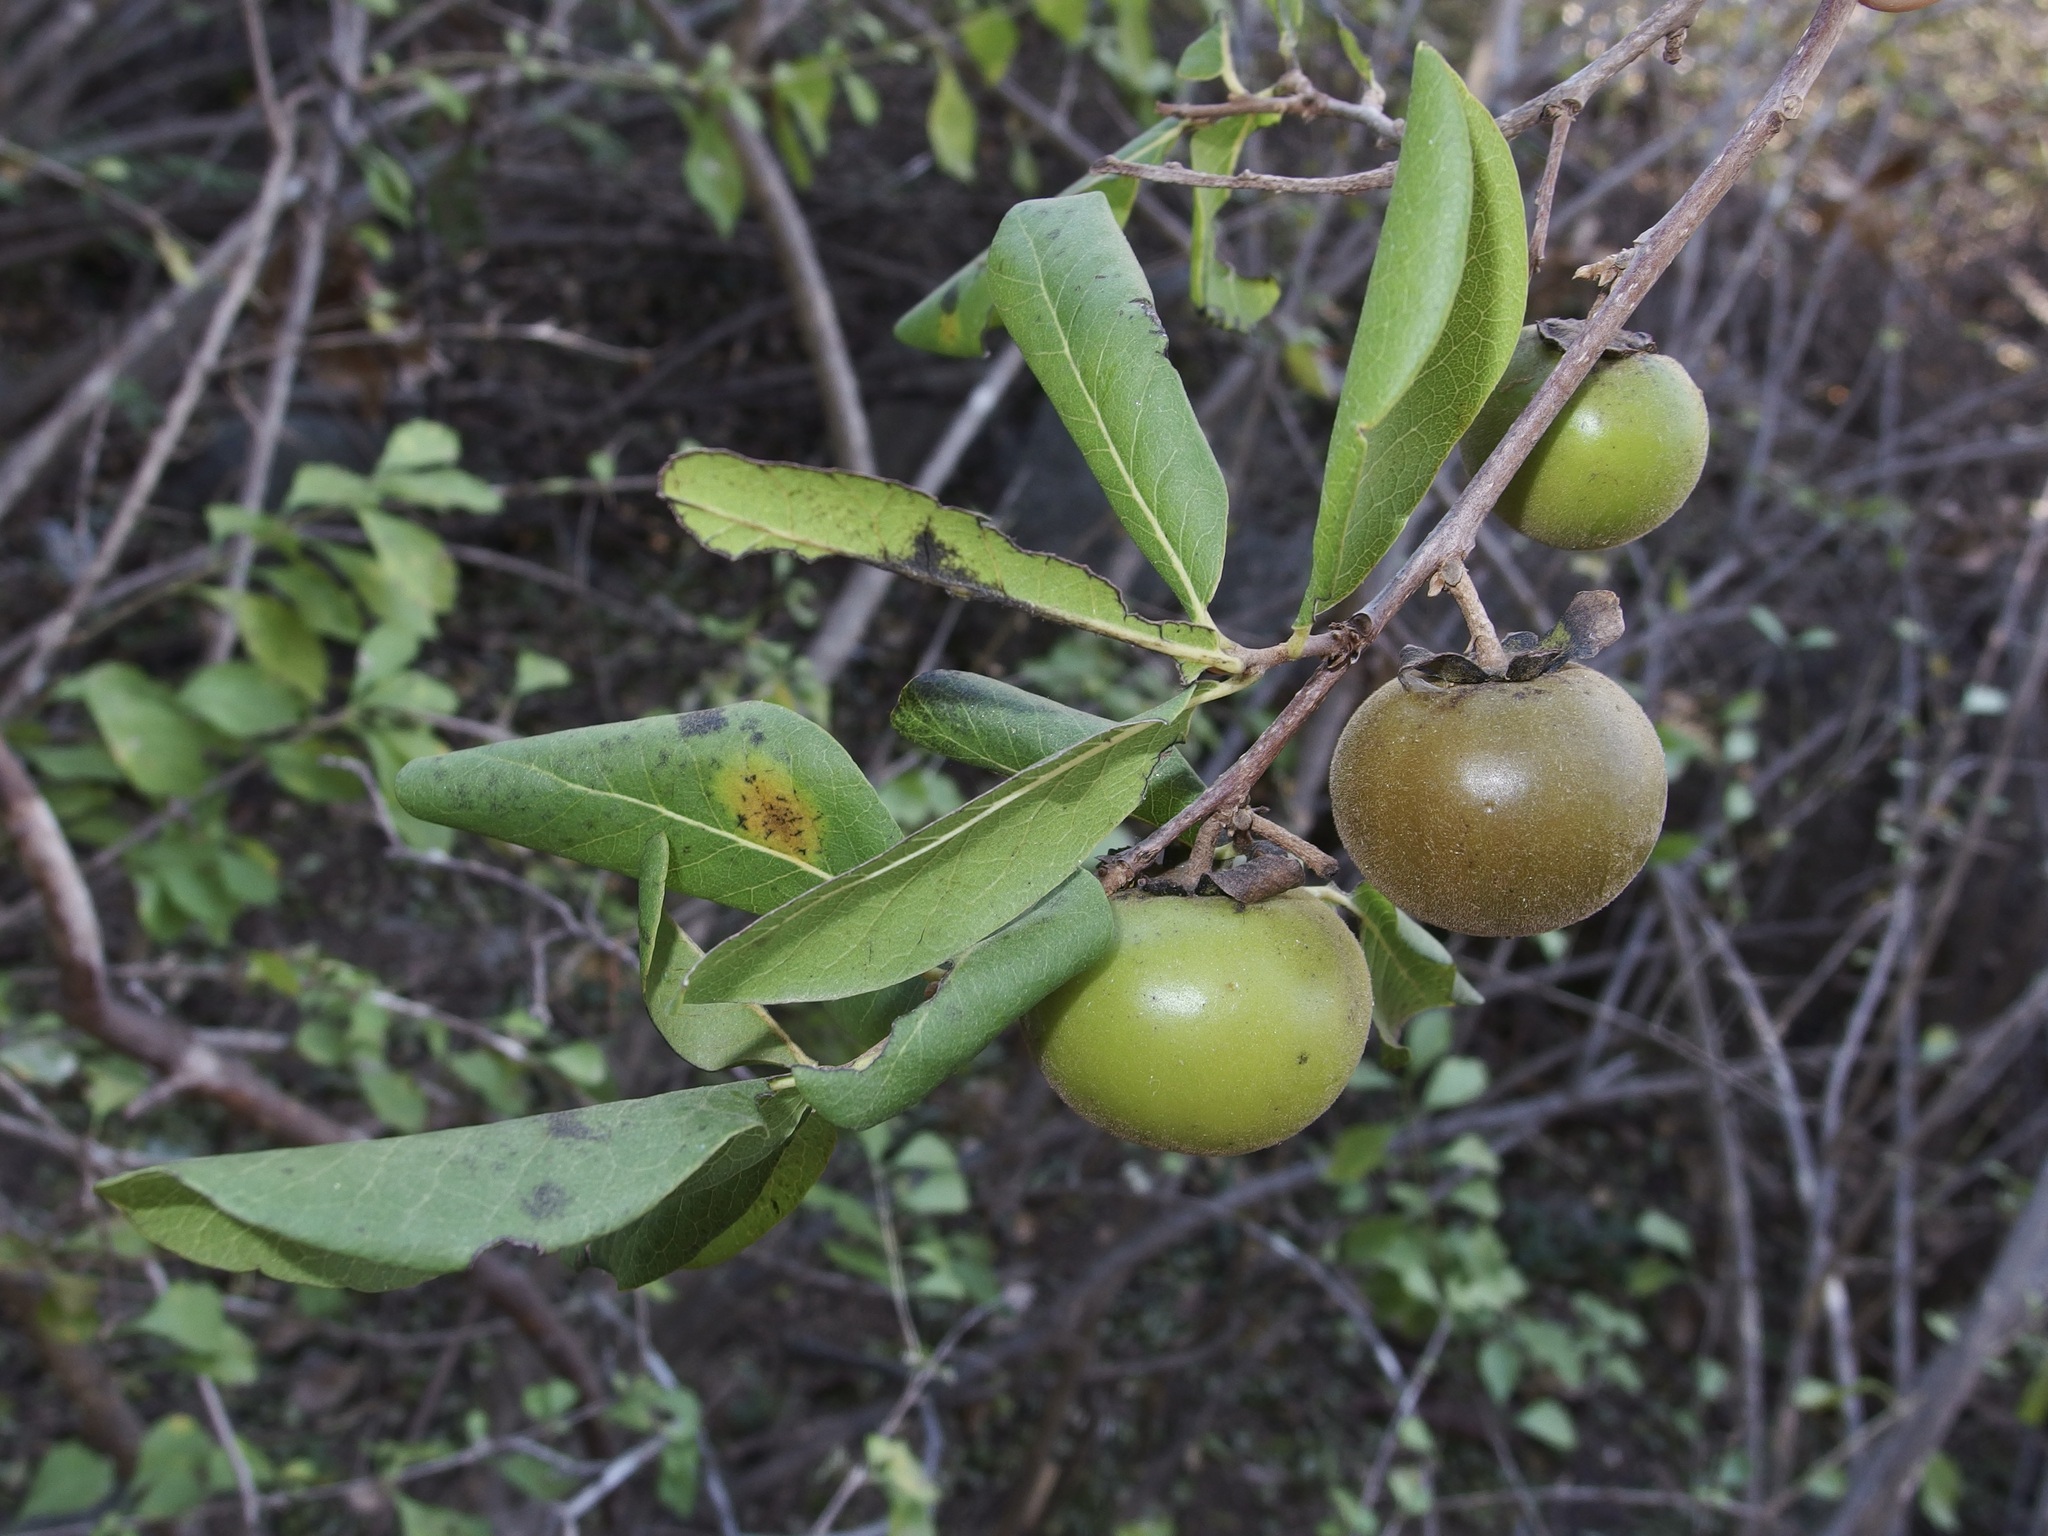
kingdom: Plantae
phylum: Tracheophyta
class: Magnoliopsida
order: Ericales
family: Ebenaceae
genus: Diospyros
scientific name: Diospyros californica
